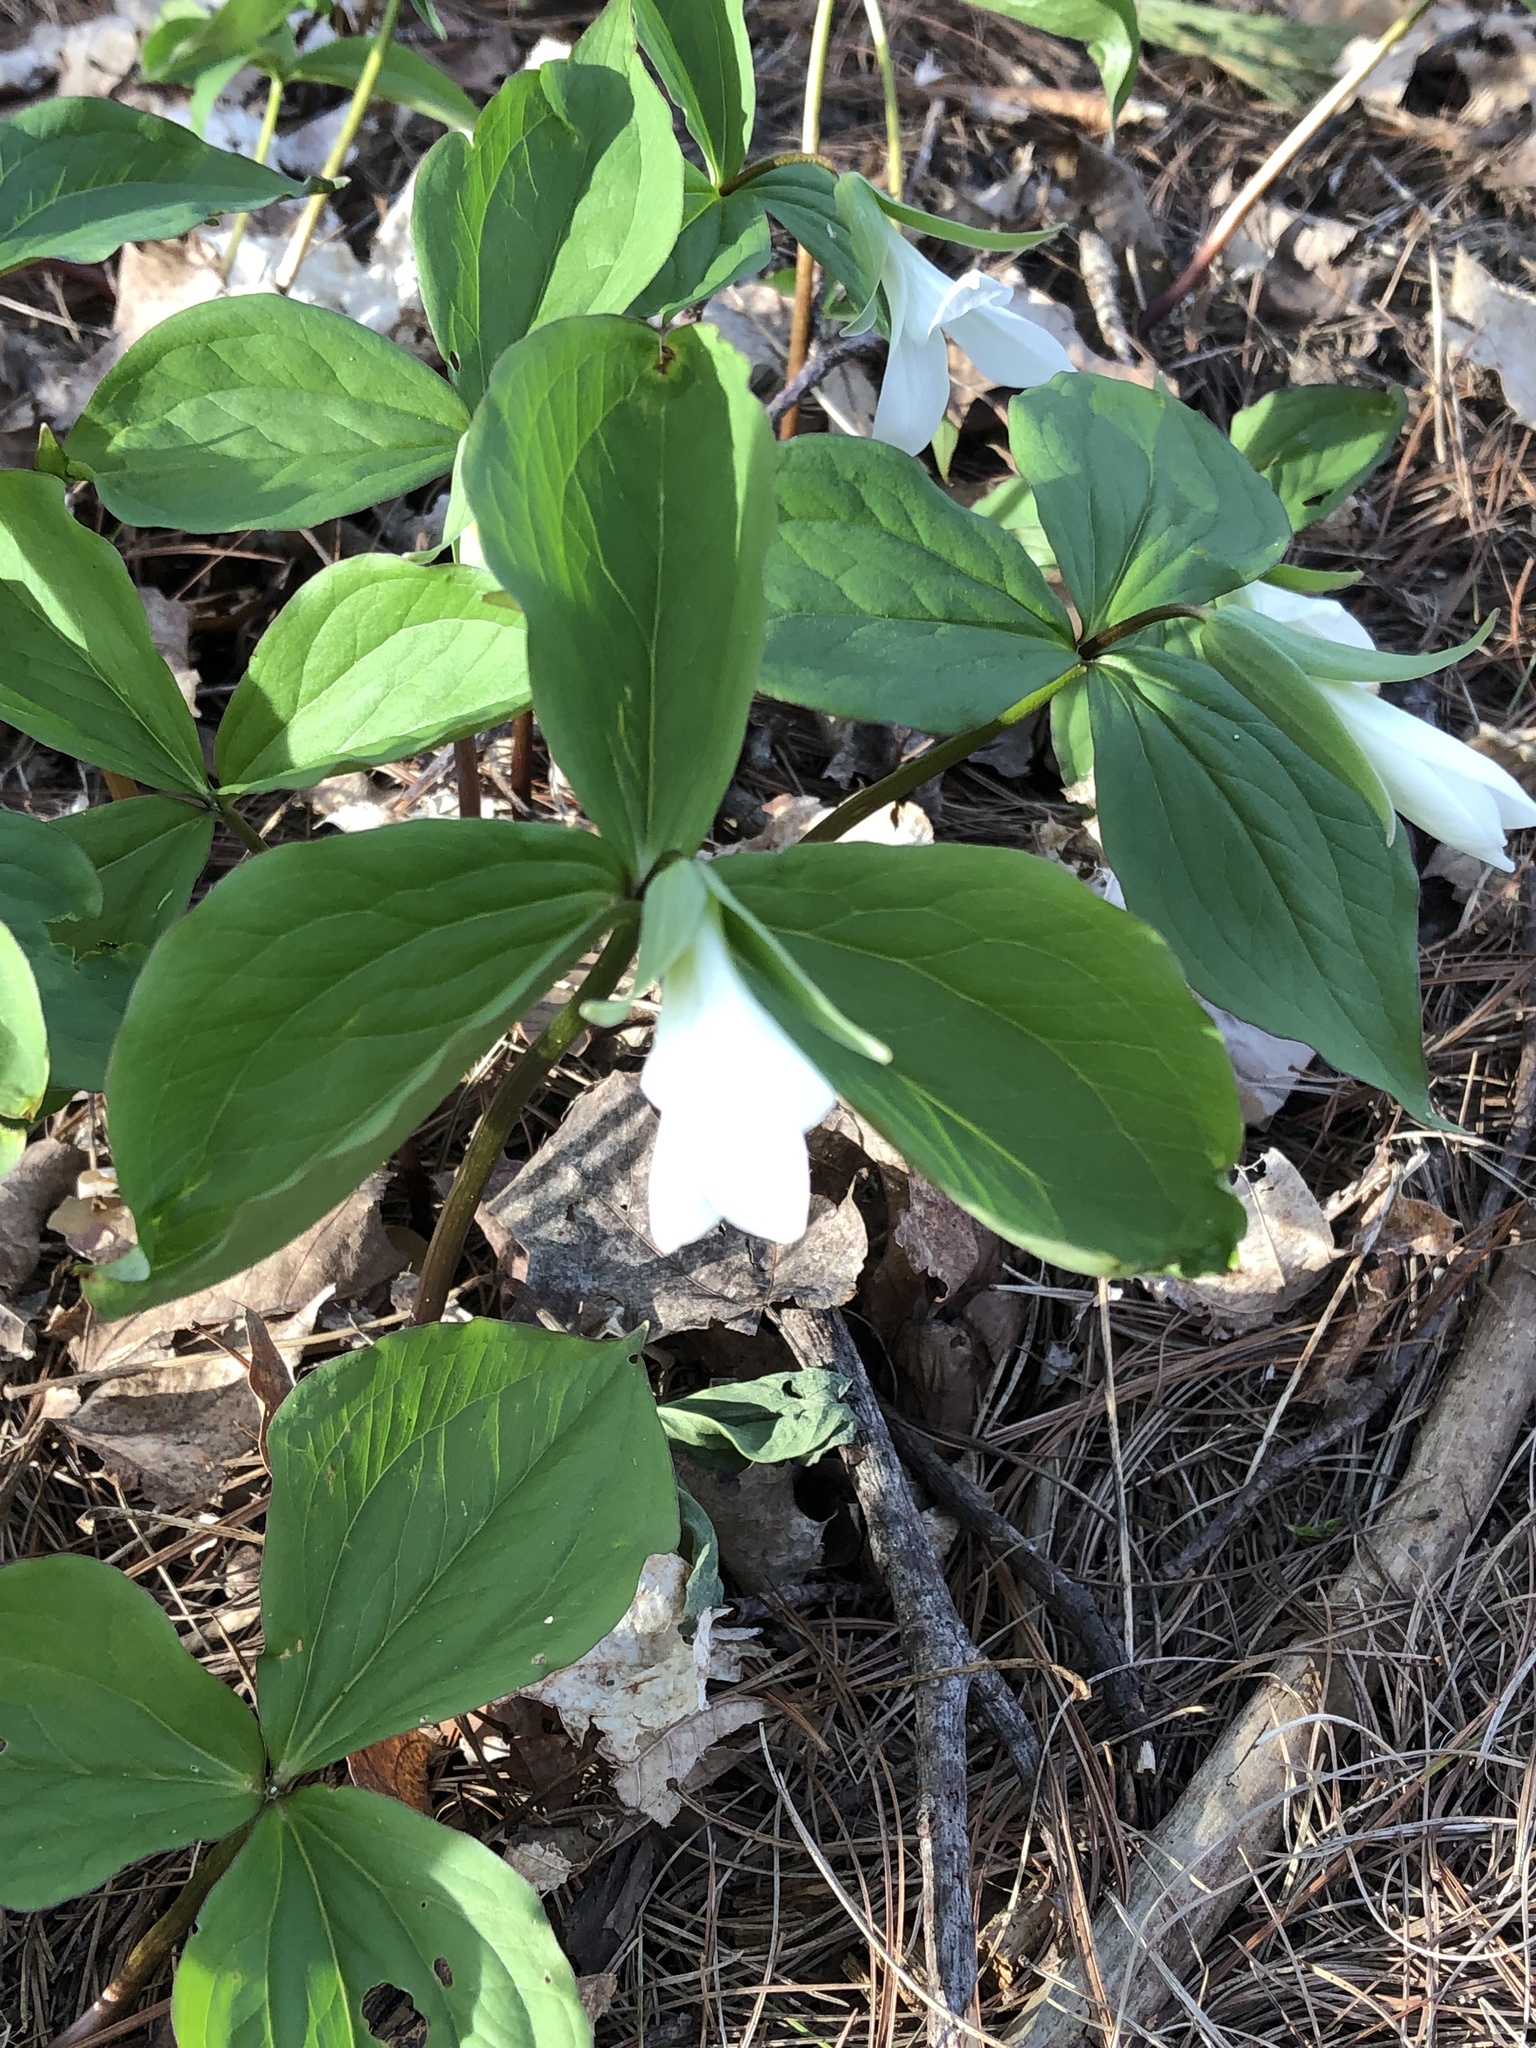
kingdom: Plantae
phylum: Tracheophyta
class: Liliopsida
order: Liliales
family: Melanthiaceae
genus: Trillium
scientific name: Trillium grandiflorum
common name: Great white trillium
